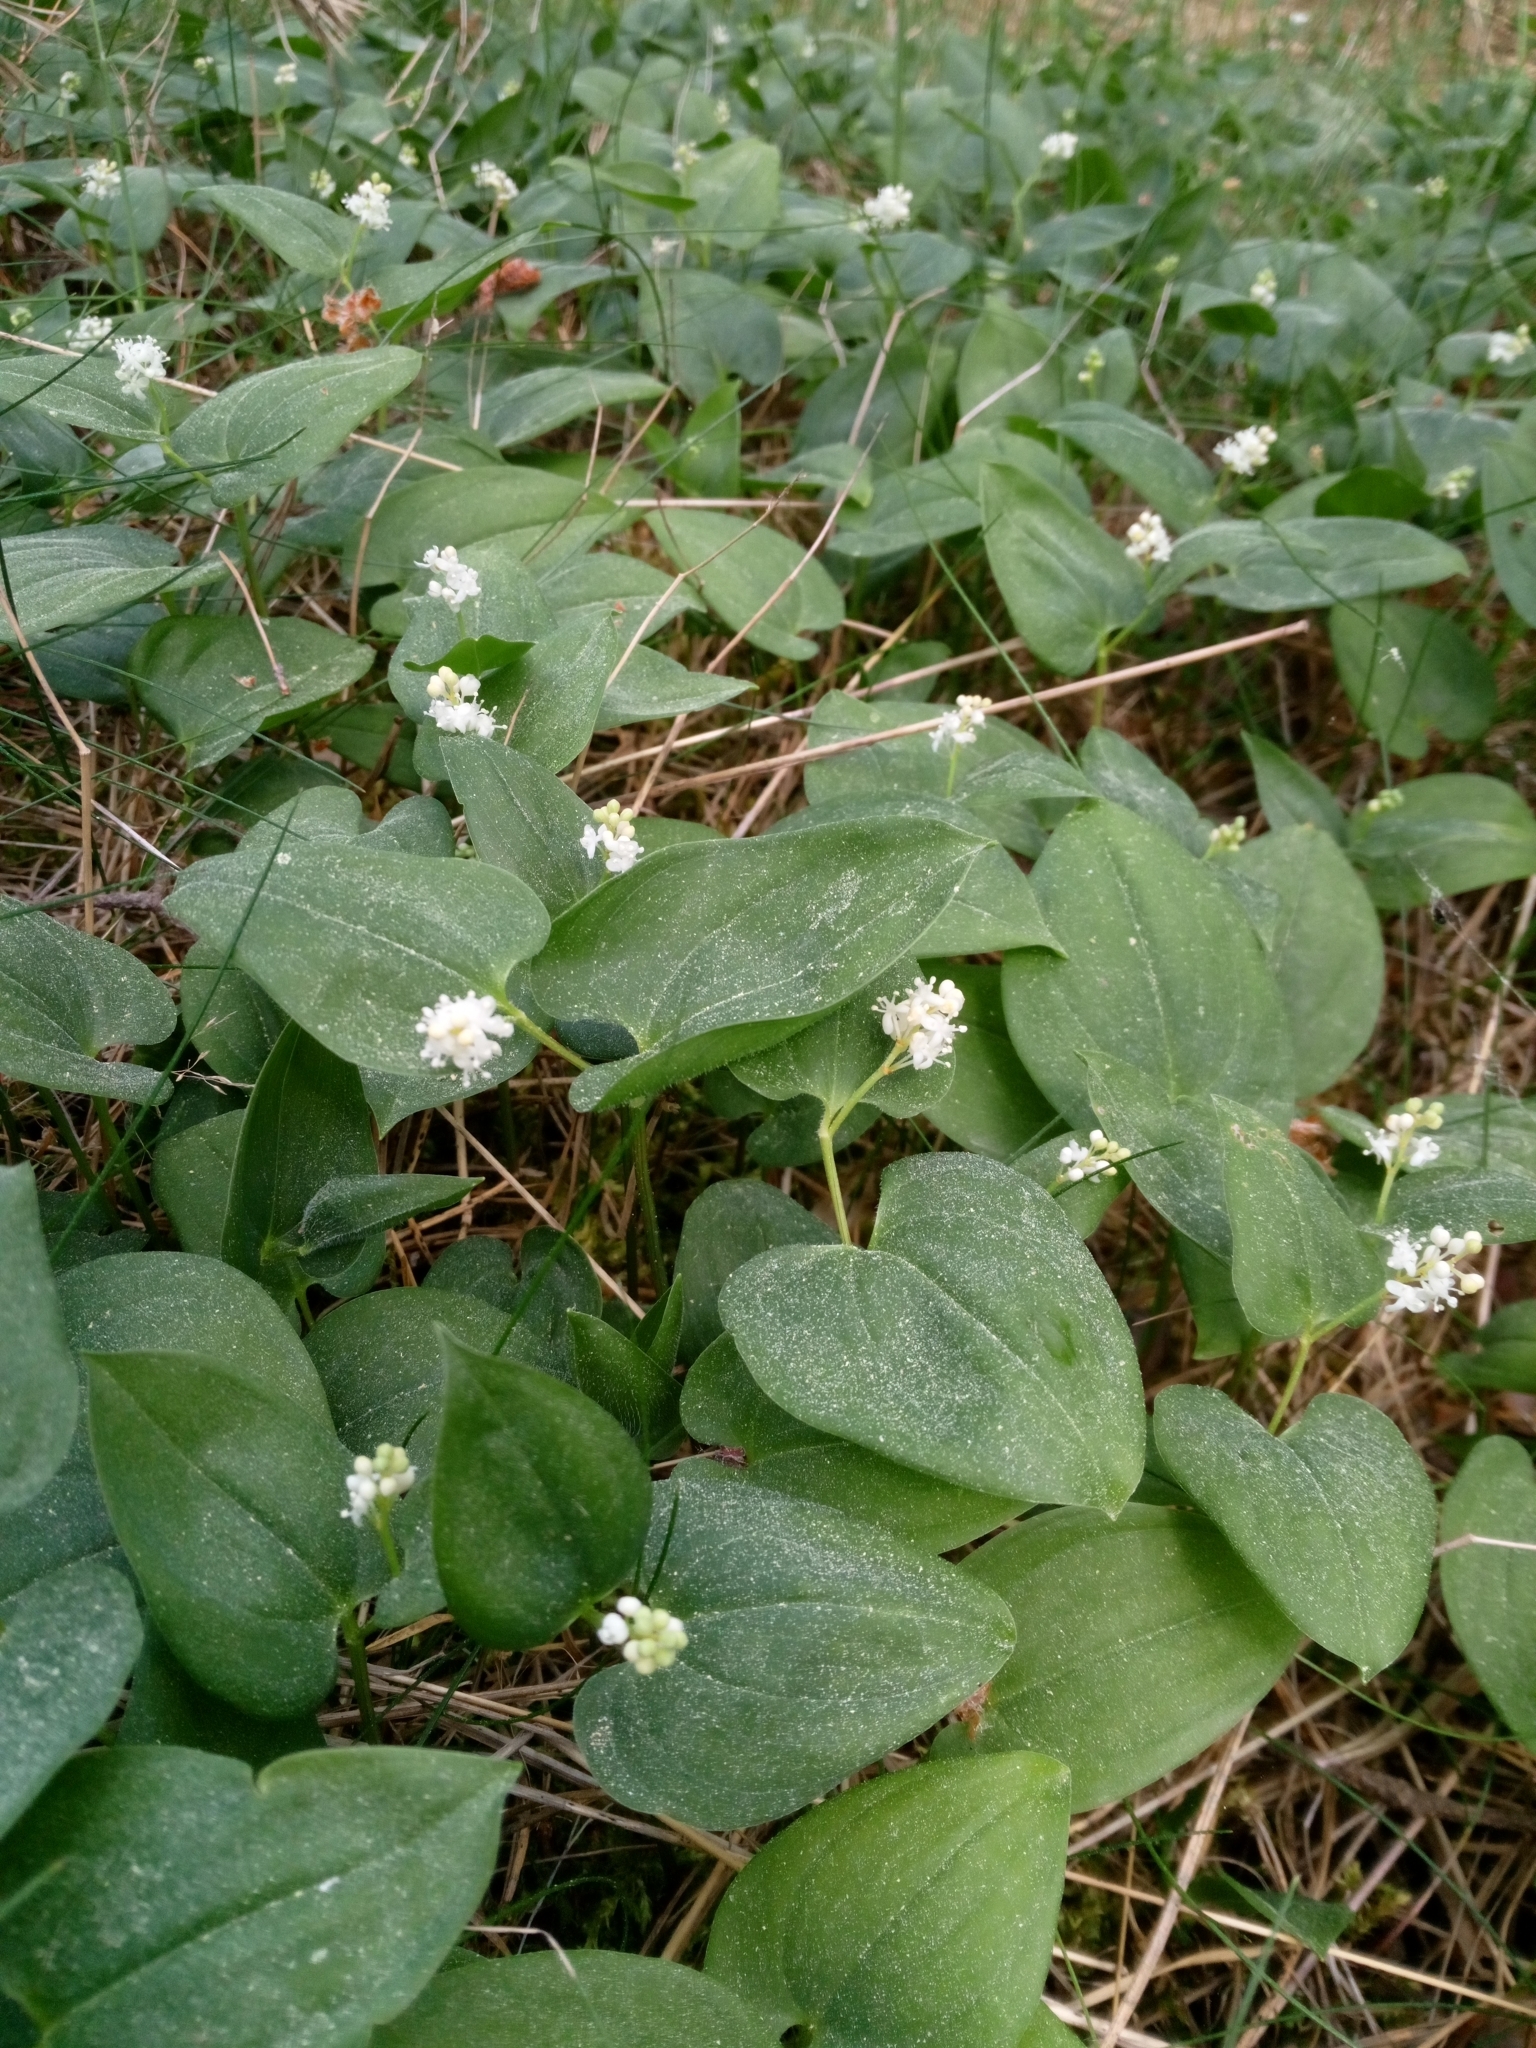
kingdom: Plantae
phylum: Tracheophyta
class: Liliopsida
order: Asparagales
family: Asparagaceae
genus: Maianthemum
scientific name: Maianthemum bifolium
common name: May lily
